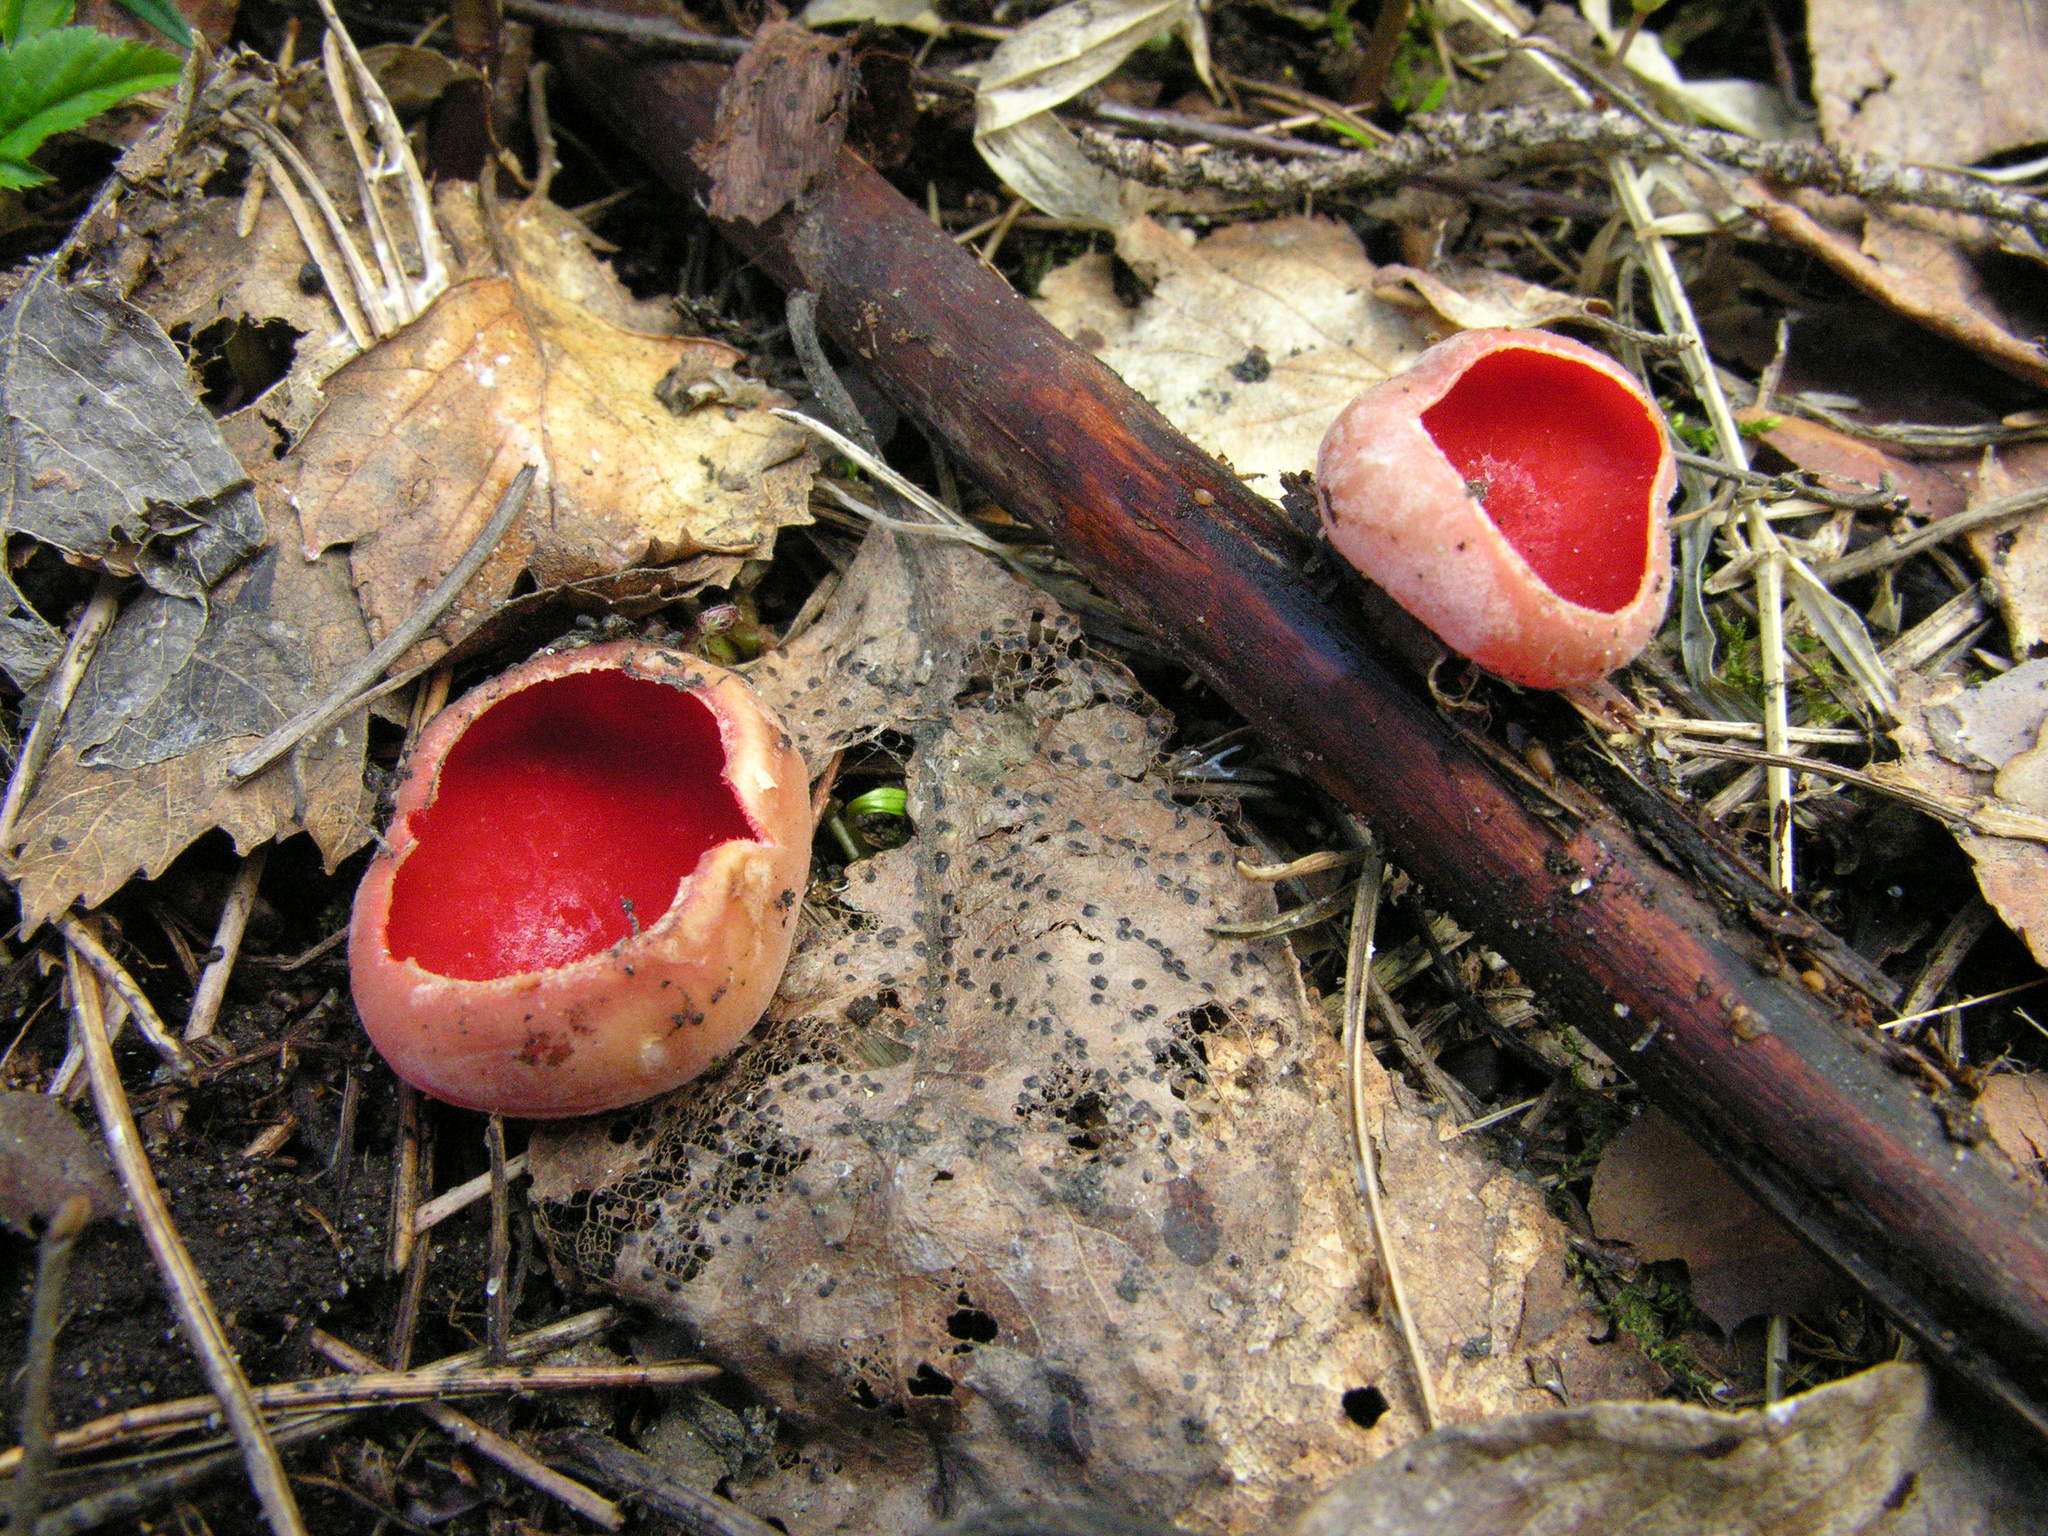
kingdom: Fungi
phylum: Ascomycota
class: Pezizomycetes
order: Pezizales
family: Sarcoscyphaceae
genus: Sarcoscypha
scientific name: Sarcoscypha austriaca
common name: Scarlet elfcup
